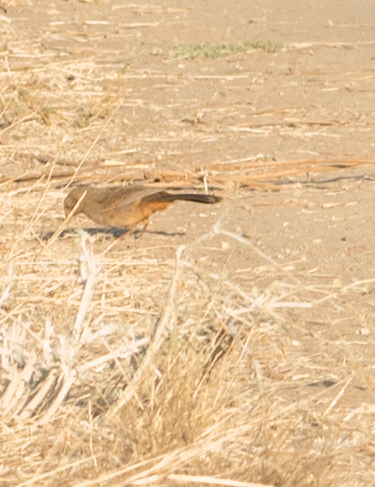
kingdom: Animalia
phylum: Chordata
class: Aves
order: Passeriformes
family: Passerellidae
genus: Melozone
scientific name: Melozone crissalis
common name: California towhee
